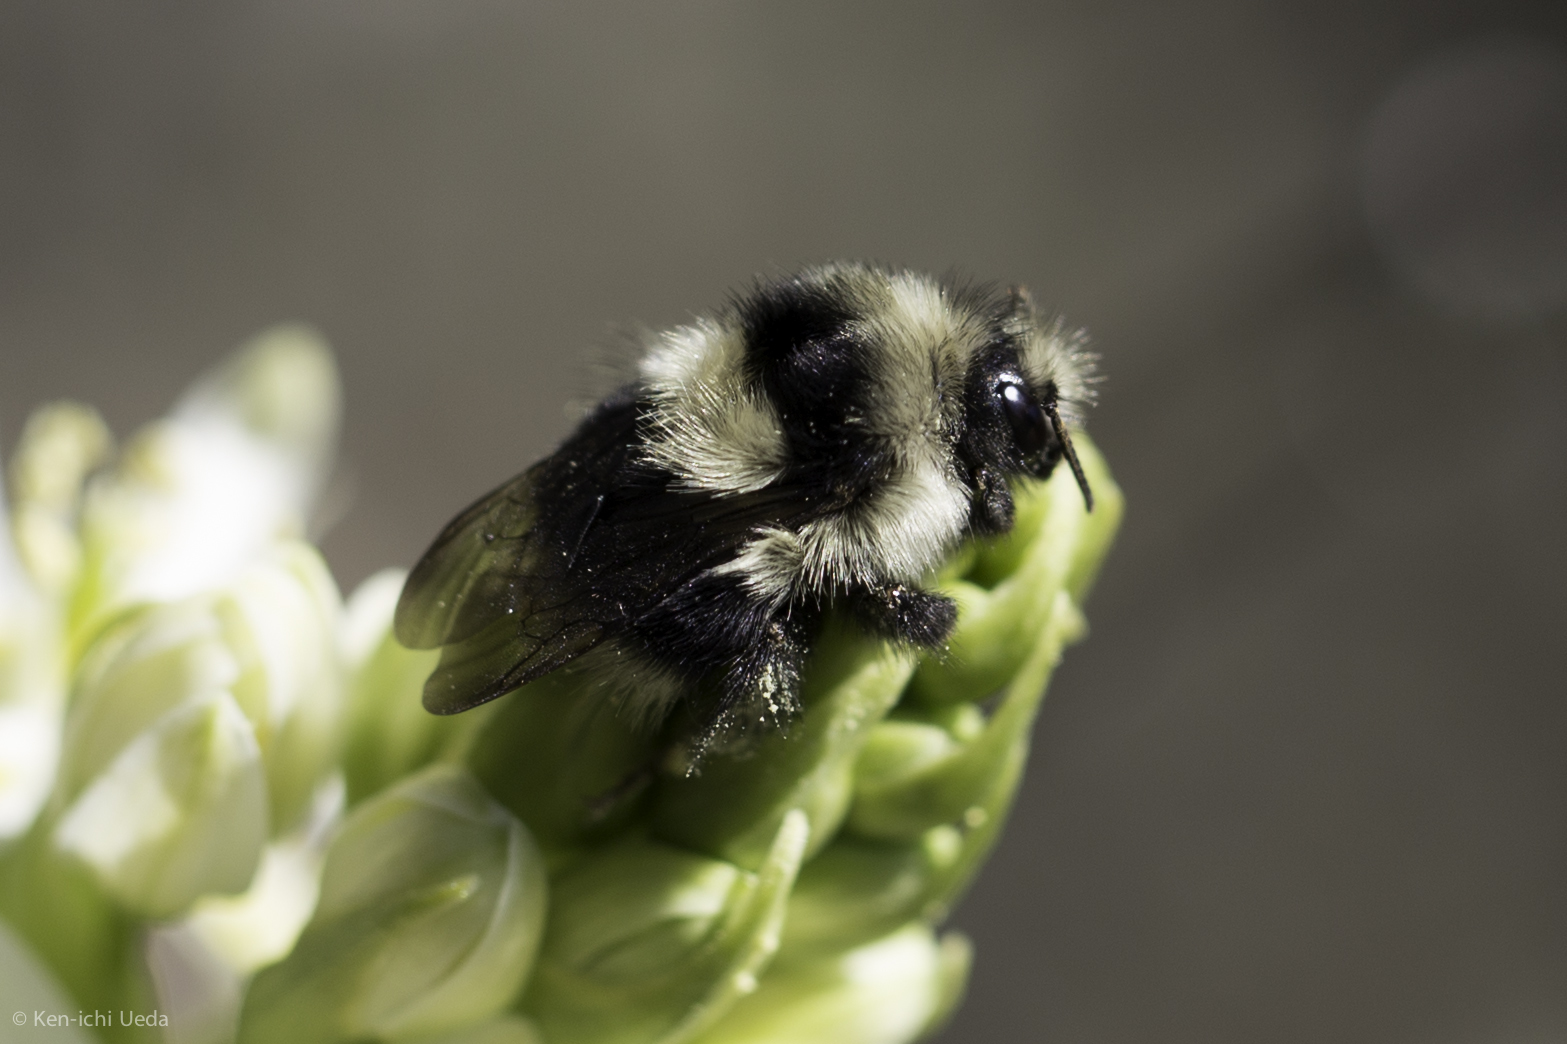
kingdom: Animalia
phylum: Arthropoda
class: Insecta
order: Hymenoptera
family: Apidae
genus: Bombus
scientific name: Bombus melanopygus
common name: Black tail bumble bee
